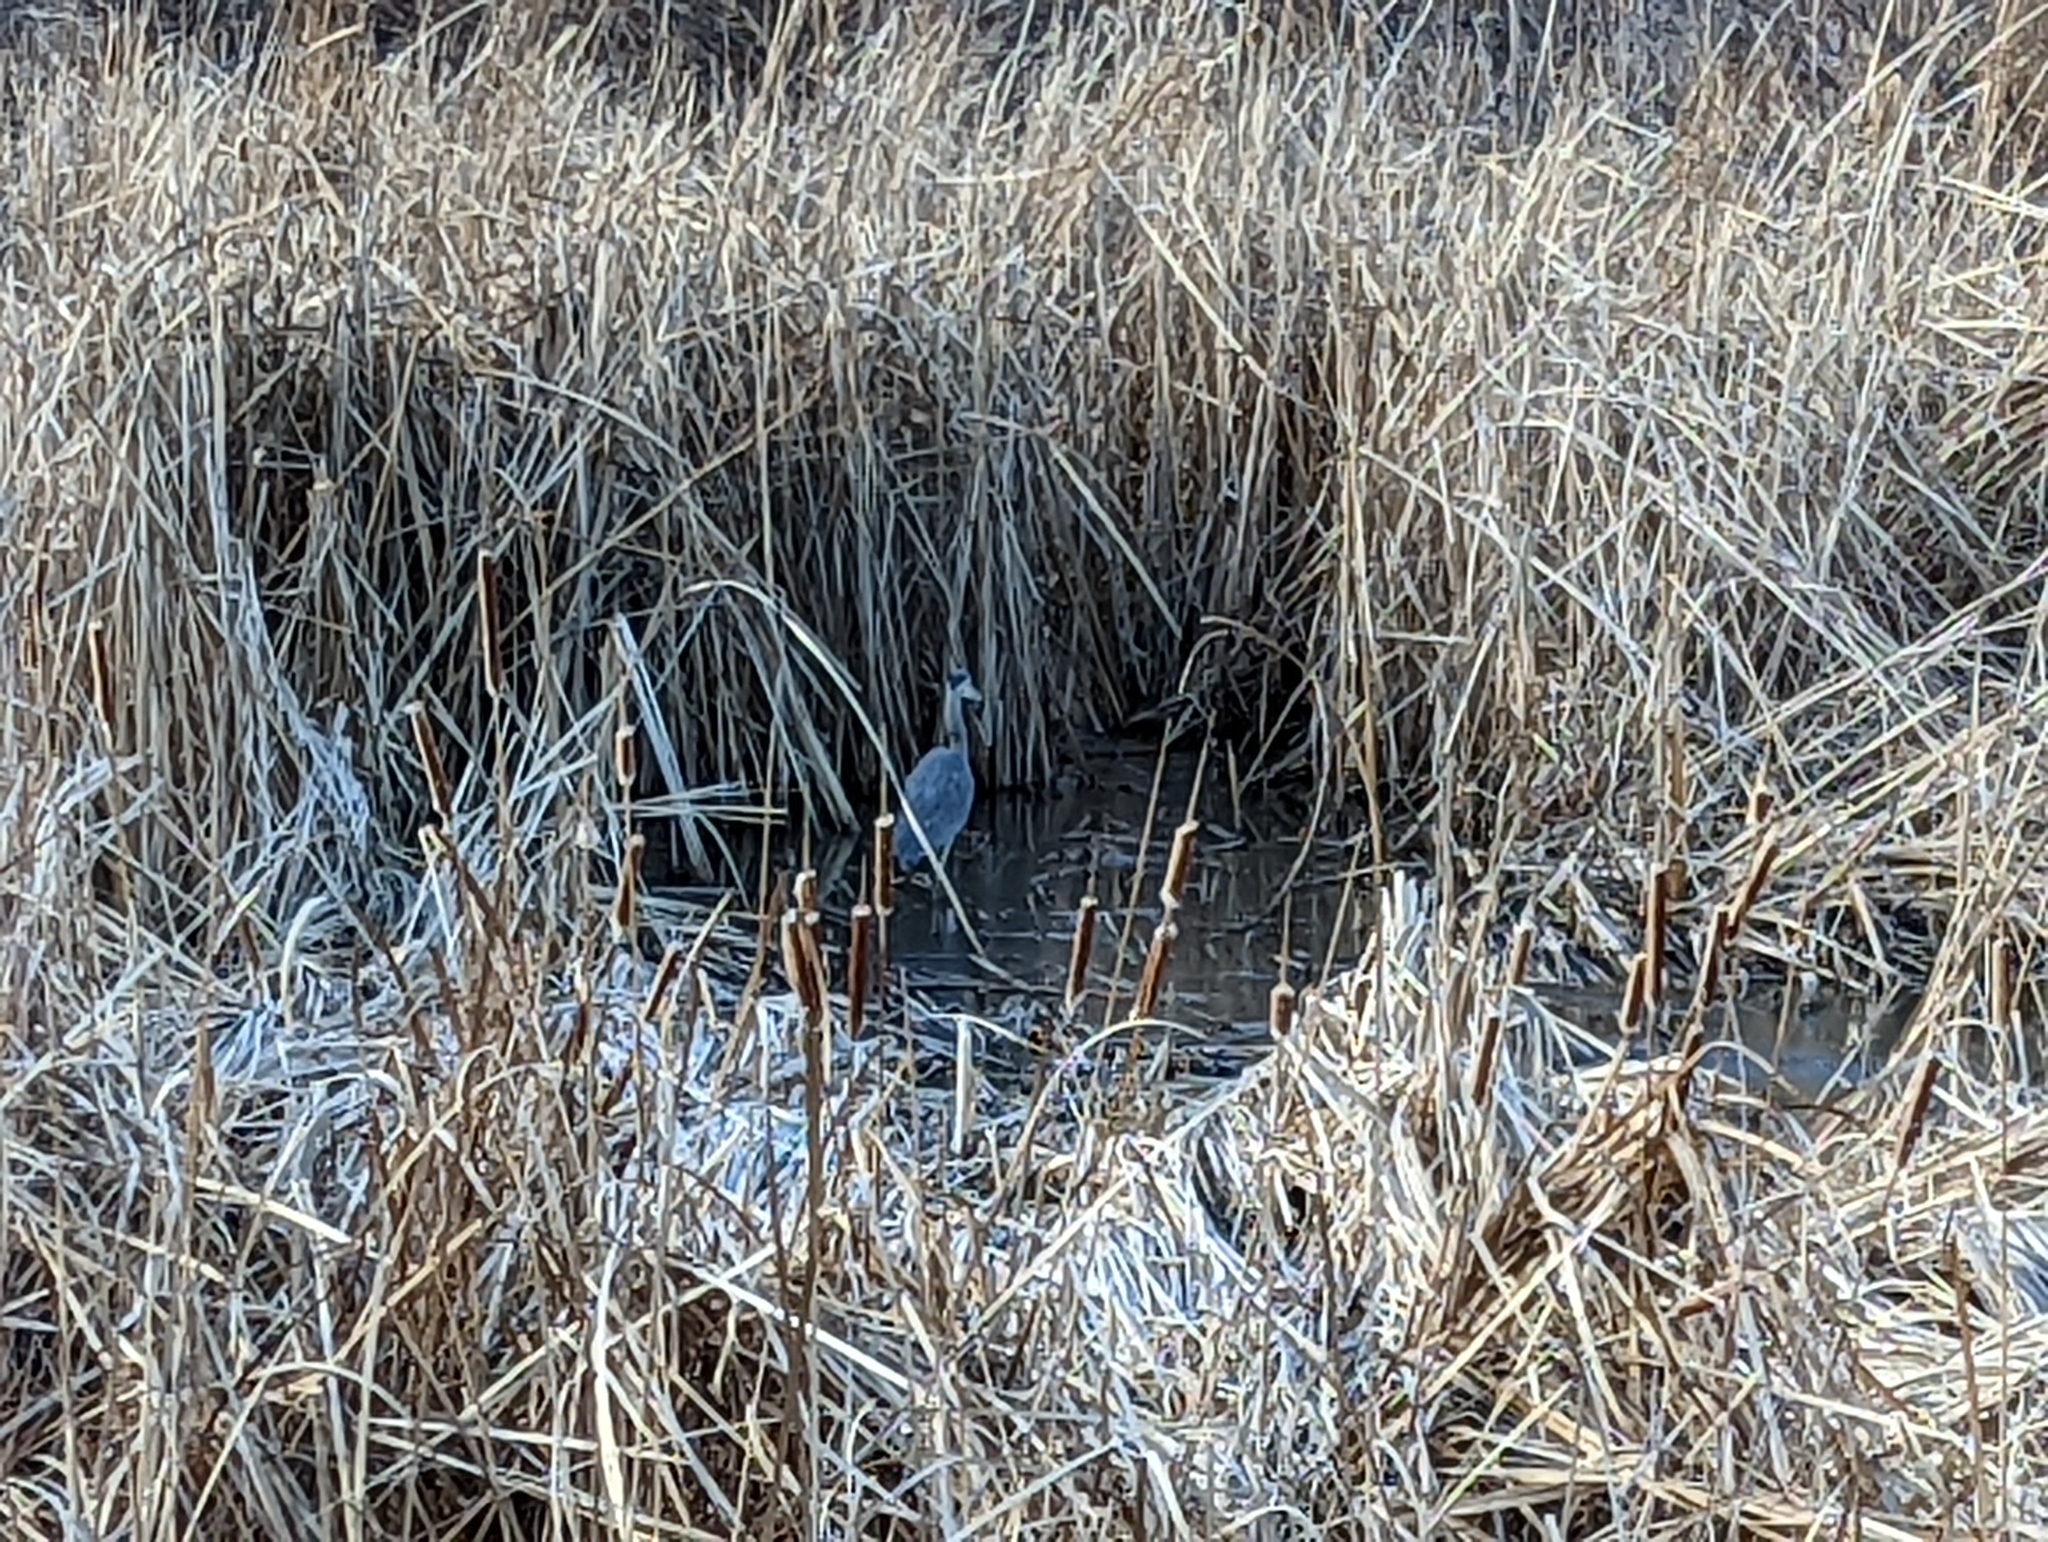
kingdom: Animalia
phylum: Chordata
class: Aves
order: Pelecaniformes
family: Ardeidae
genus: Ardea
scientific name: Ardea herodias
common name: Great blue heron
